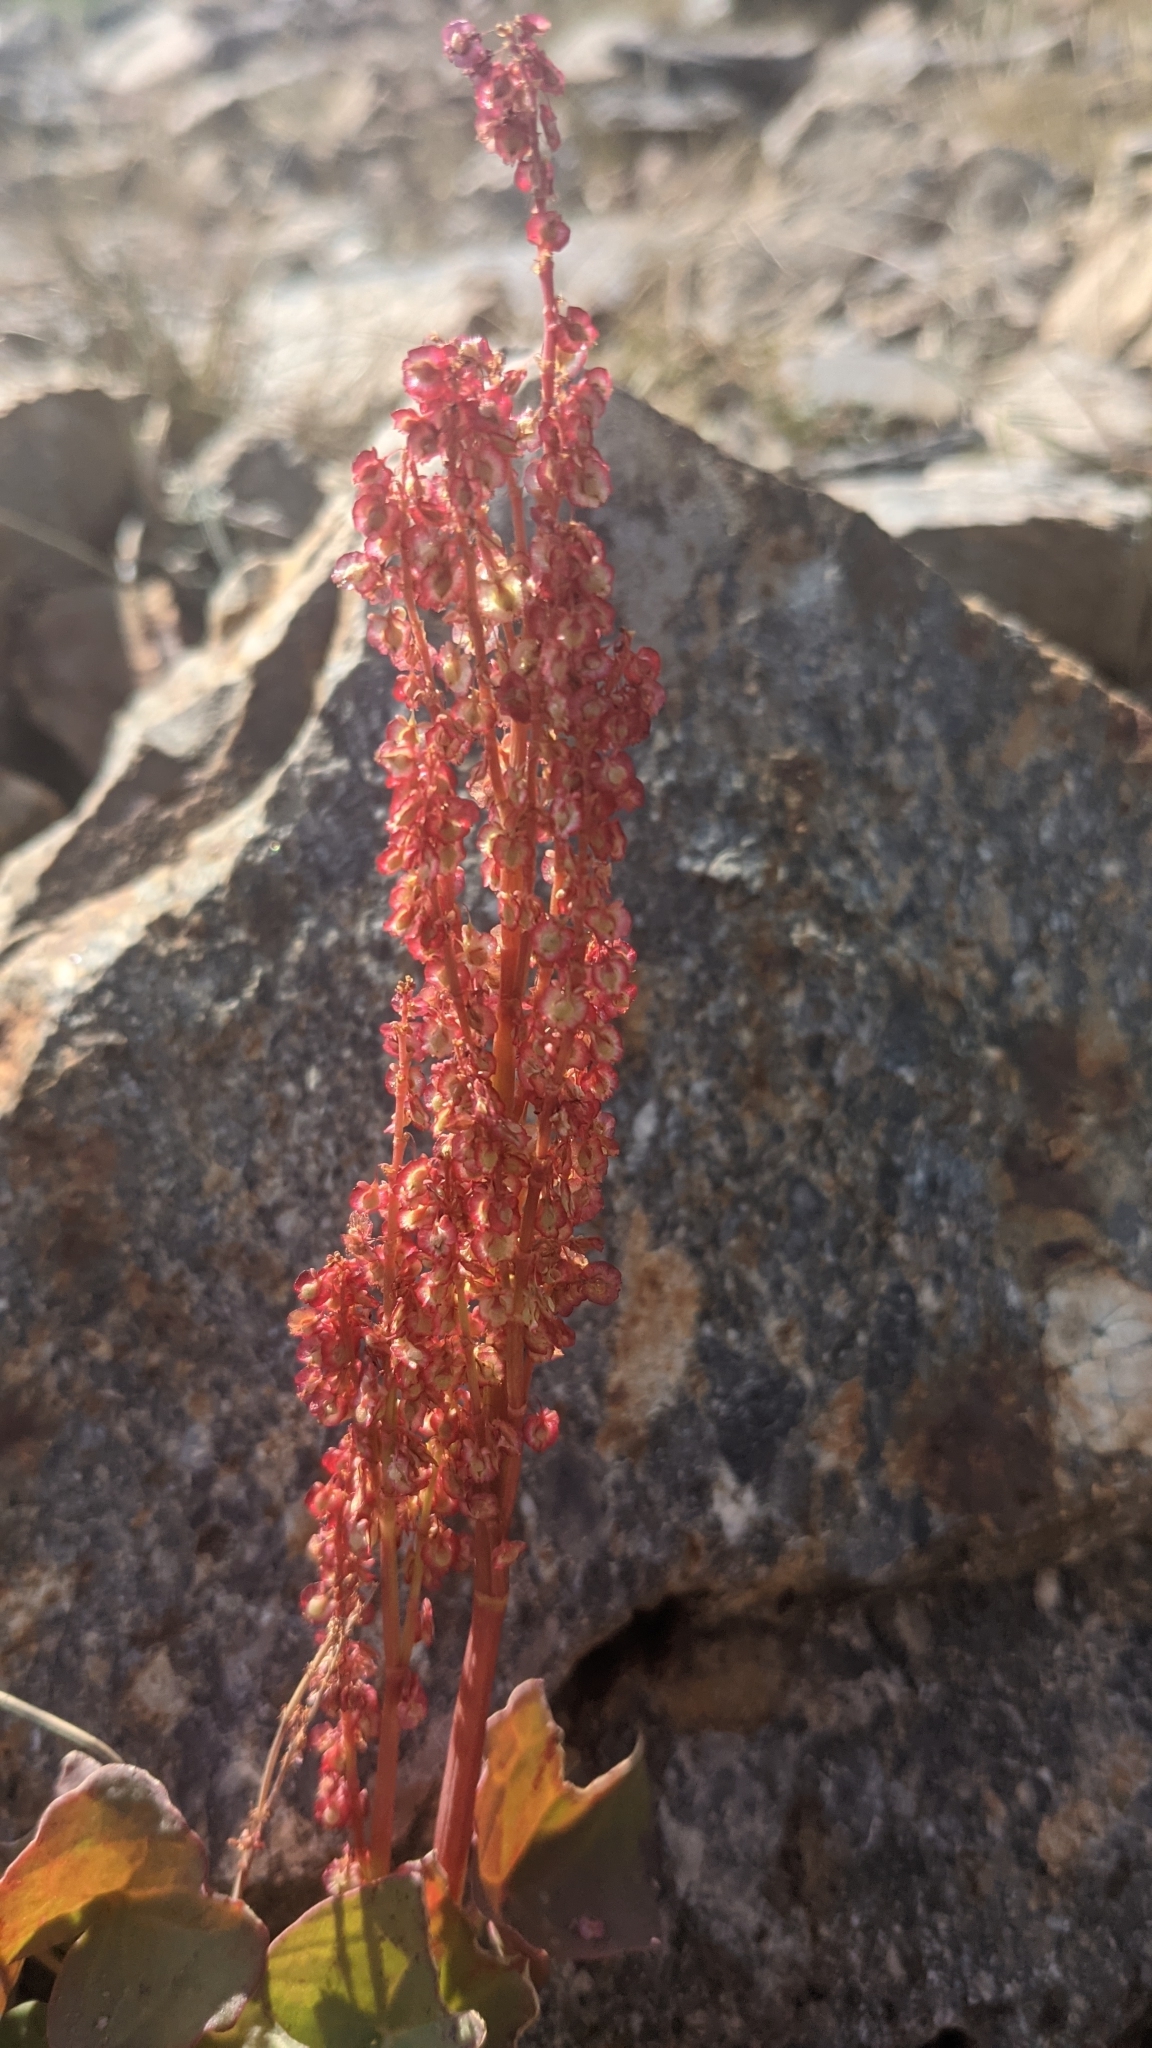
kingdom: Plantae
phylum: Tracheophyta
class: Magnoliopsida
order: Caryophyllales
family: Polygonaceae
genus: Oxyria
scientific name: Oxyria digyna
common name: Alpine mountain-sorrel
